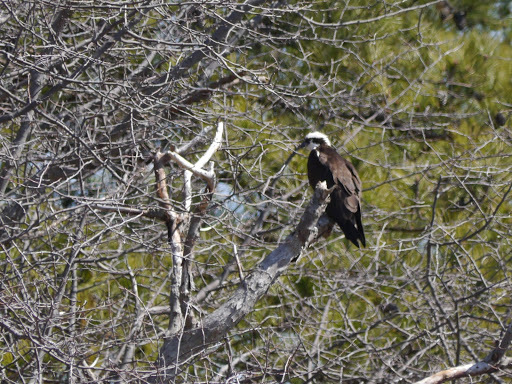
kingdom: Animalia
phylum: Chordata
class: Aves
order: Accipitriformes
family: Pandionidae
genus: Pandion
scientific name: Pandion haliaetus
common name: Osprey
